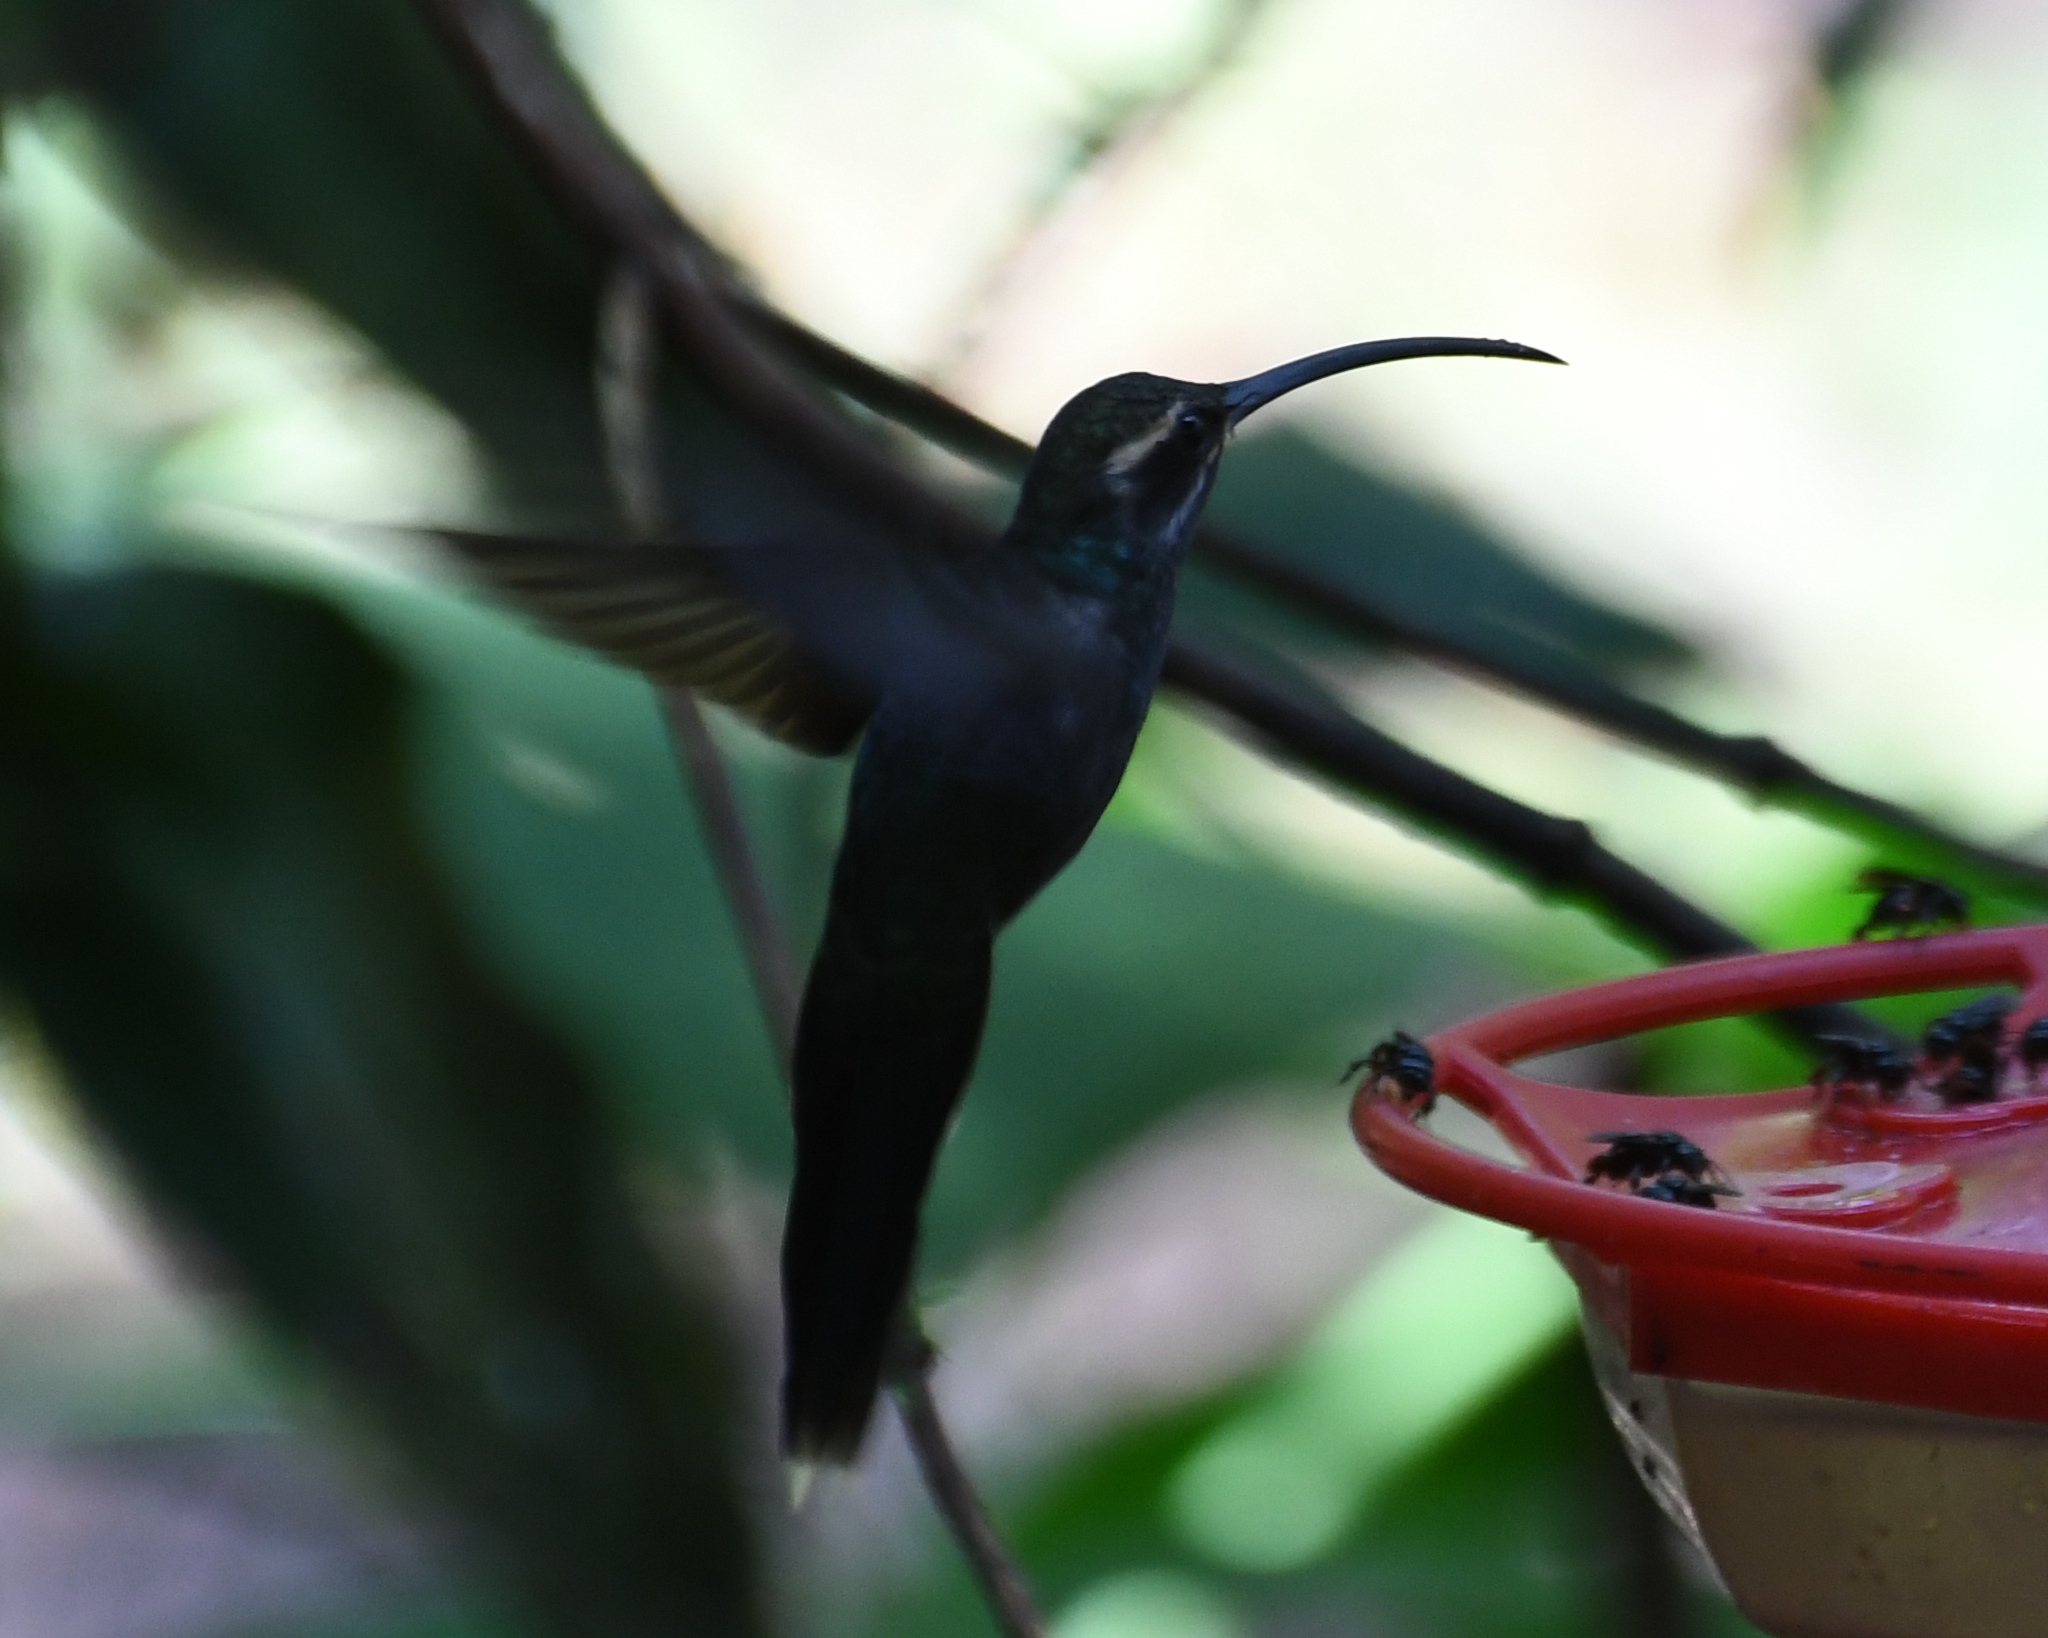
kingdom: Animalia
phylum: Chordata
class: Aves
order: Apodiformes
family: Trochilidae
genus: Phaethornis
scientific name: Phaethornis yaruqui
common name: White-whiskered hermit
